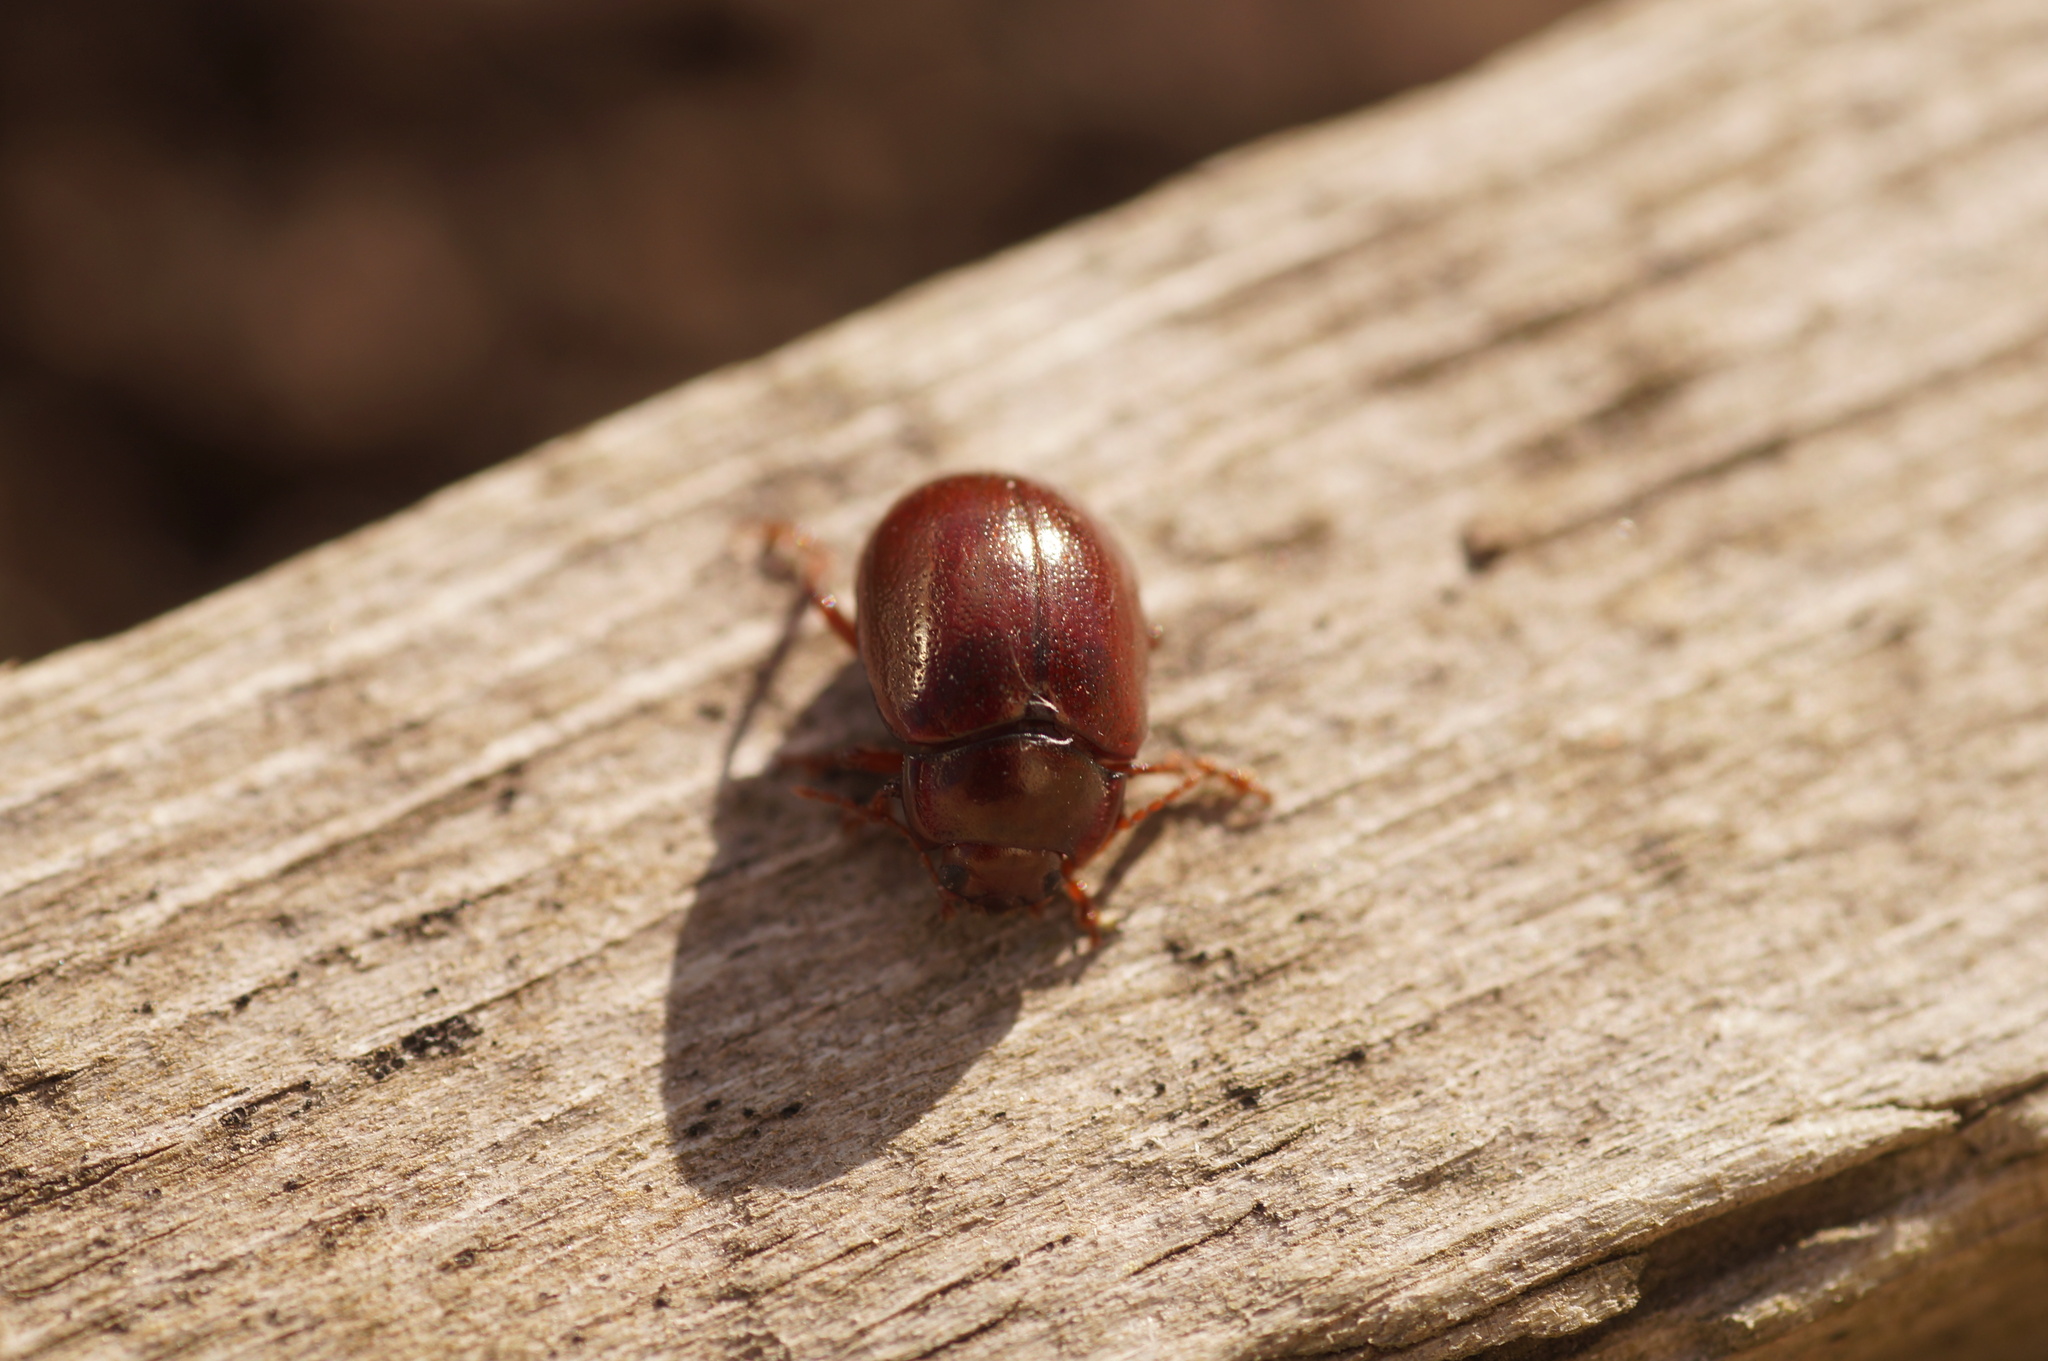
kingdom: Animalia
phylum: Arthropoda
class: Insecta
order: Coleoptera
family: Chrysomelidae
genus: Chrysolina
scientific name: Chrysolina staphylaea
